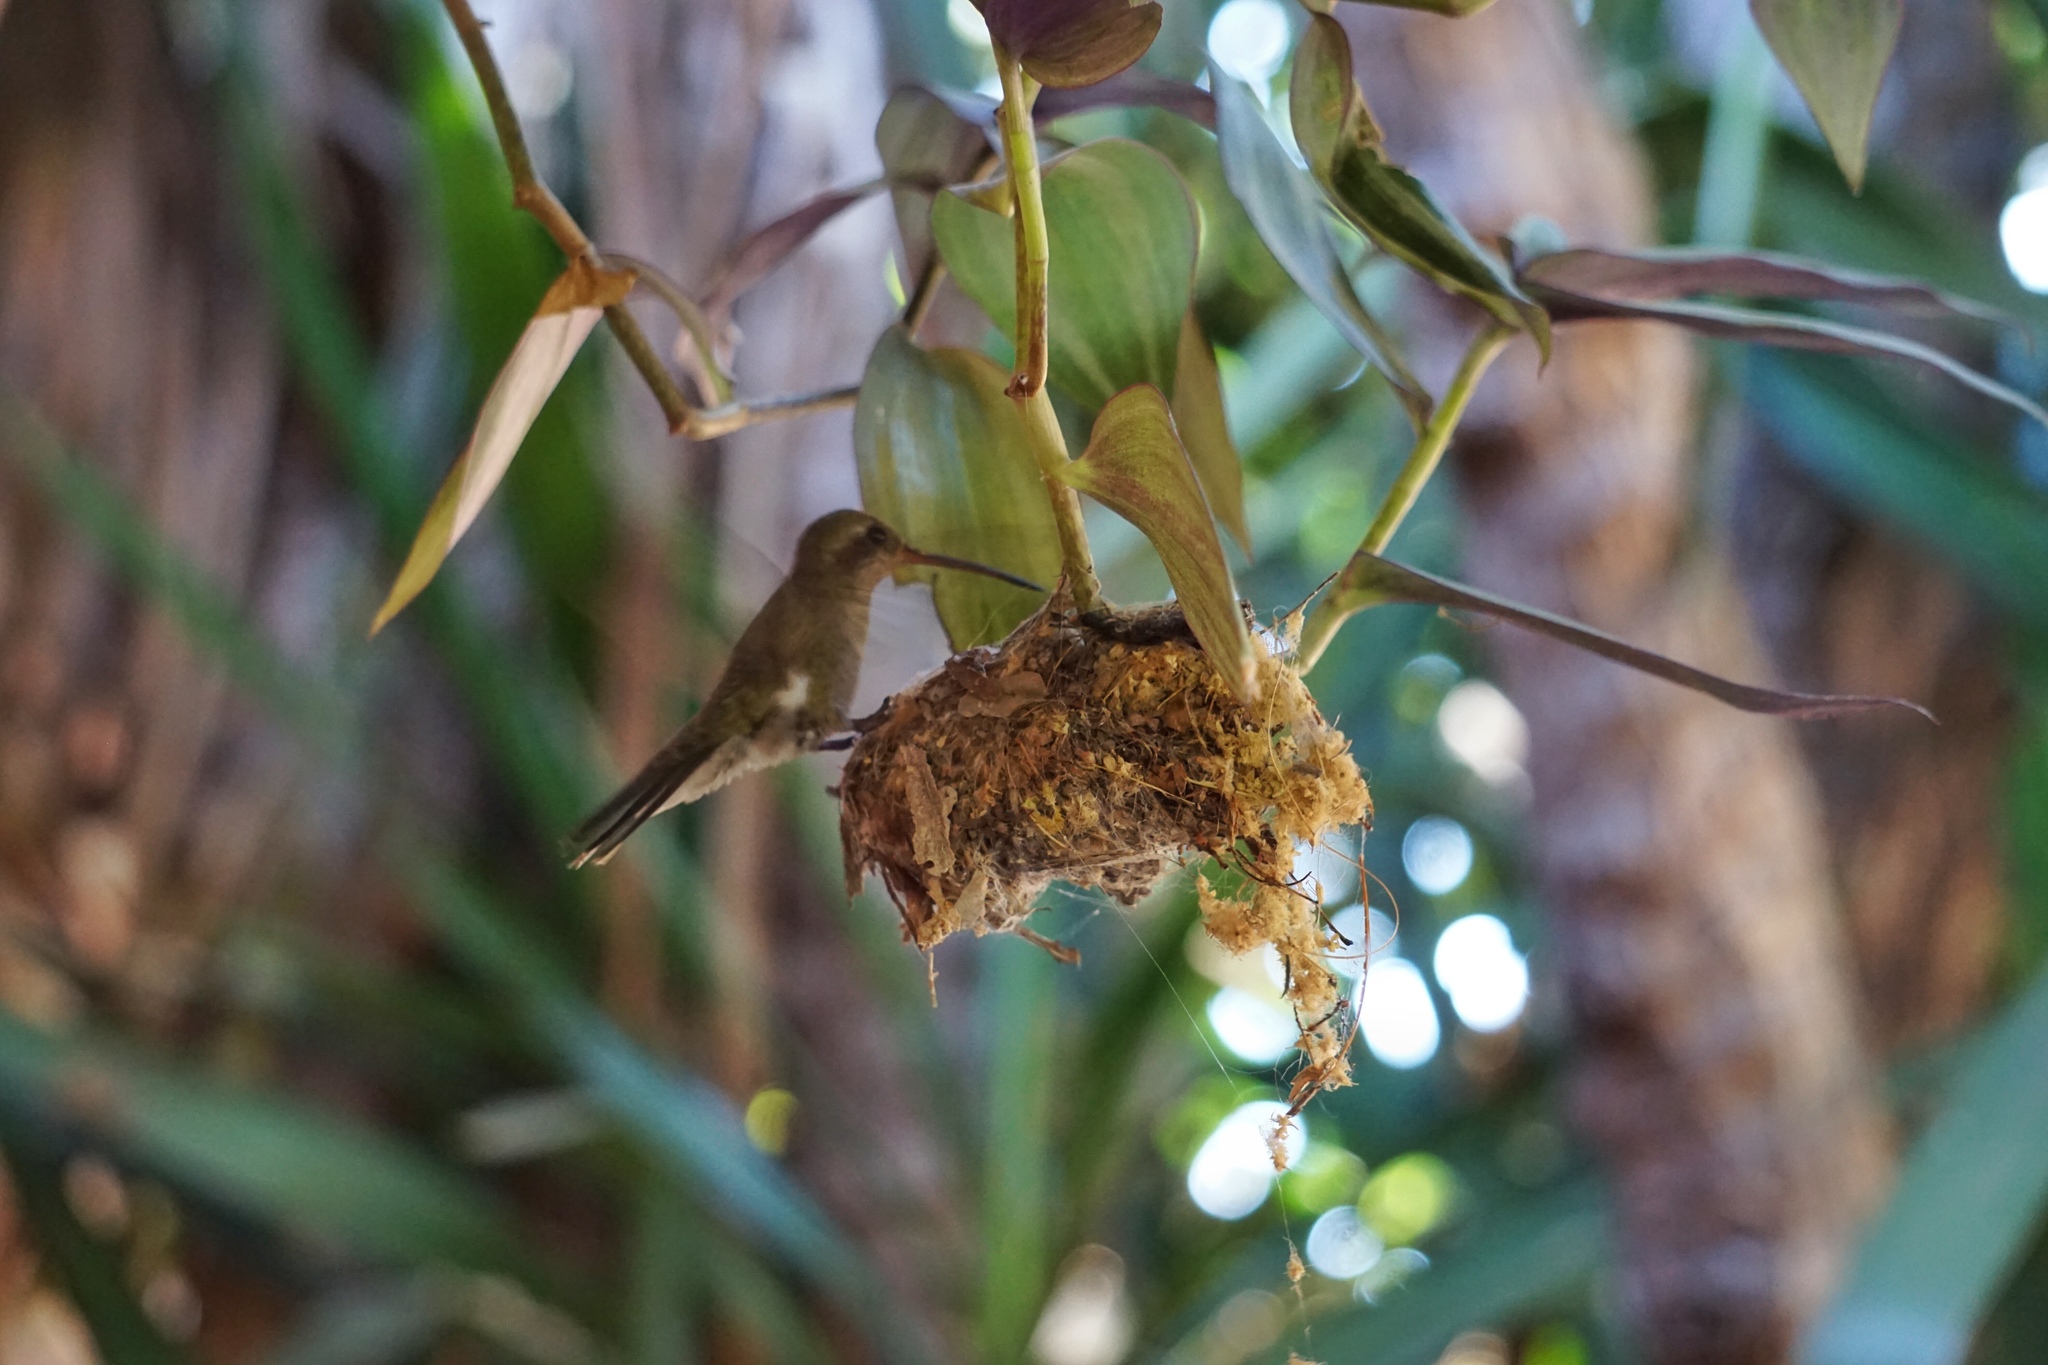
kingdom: Animalia
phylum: Chordata
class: Aves
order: Apodiformes
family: Trochilidae
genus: Cynanthus
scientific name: Cynanthus latirostris
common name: Broad-billed hummingbird
